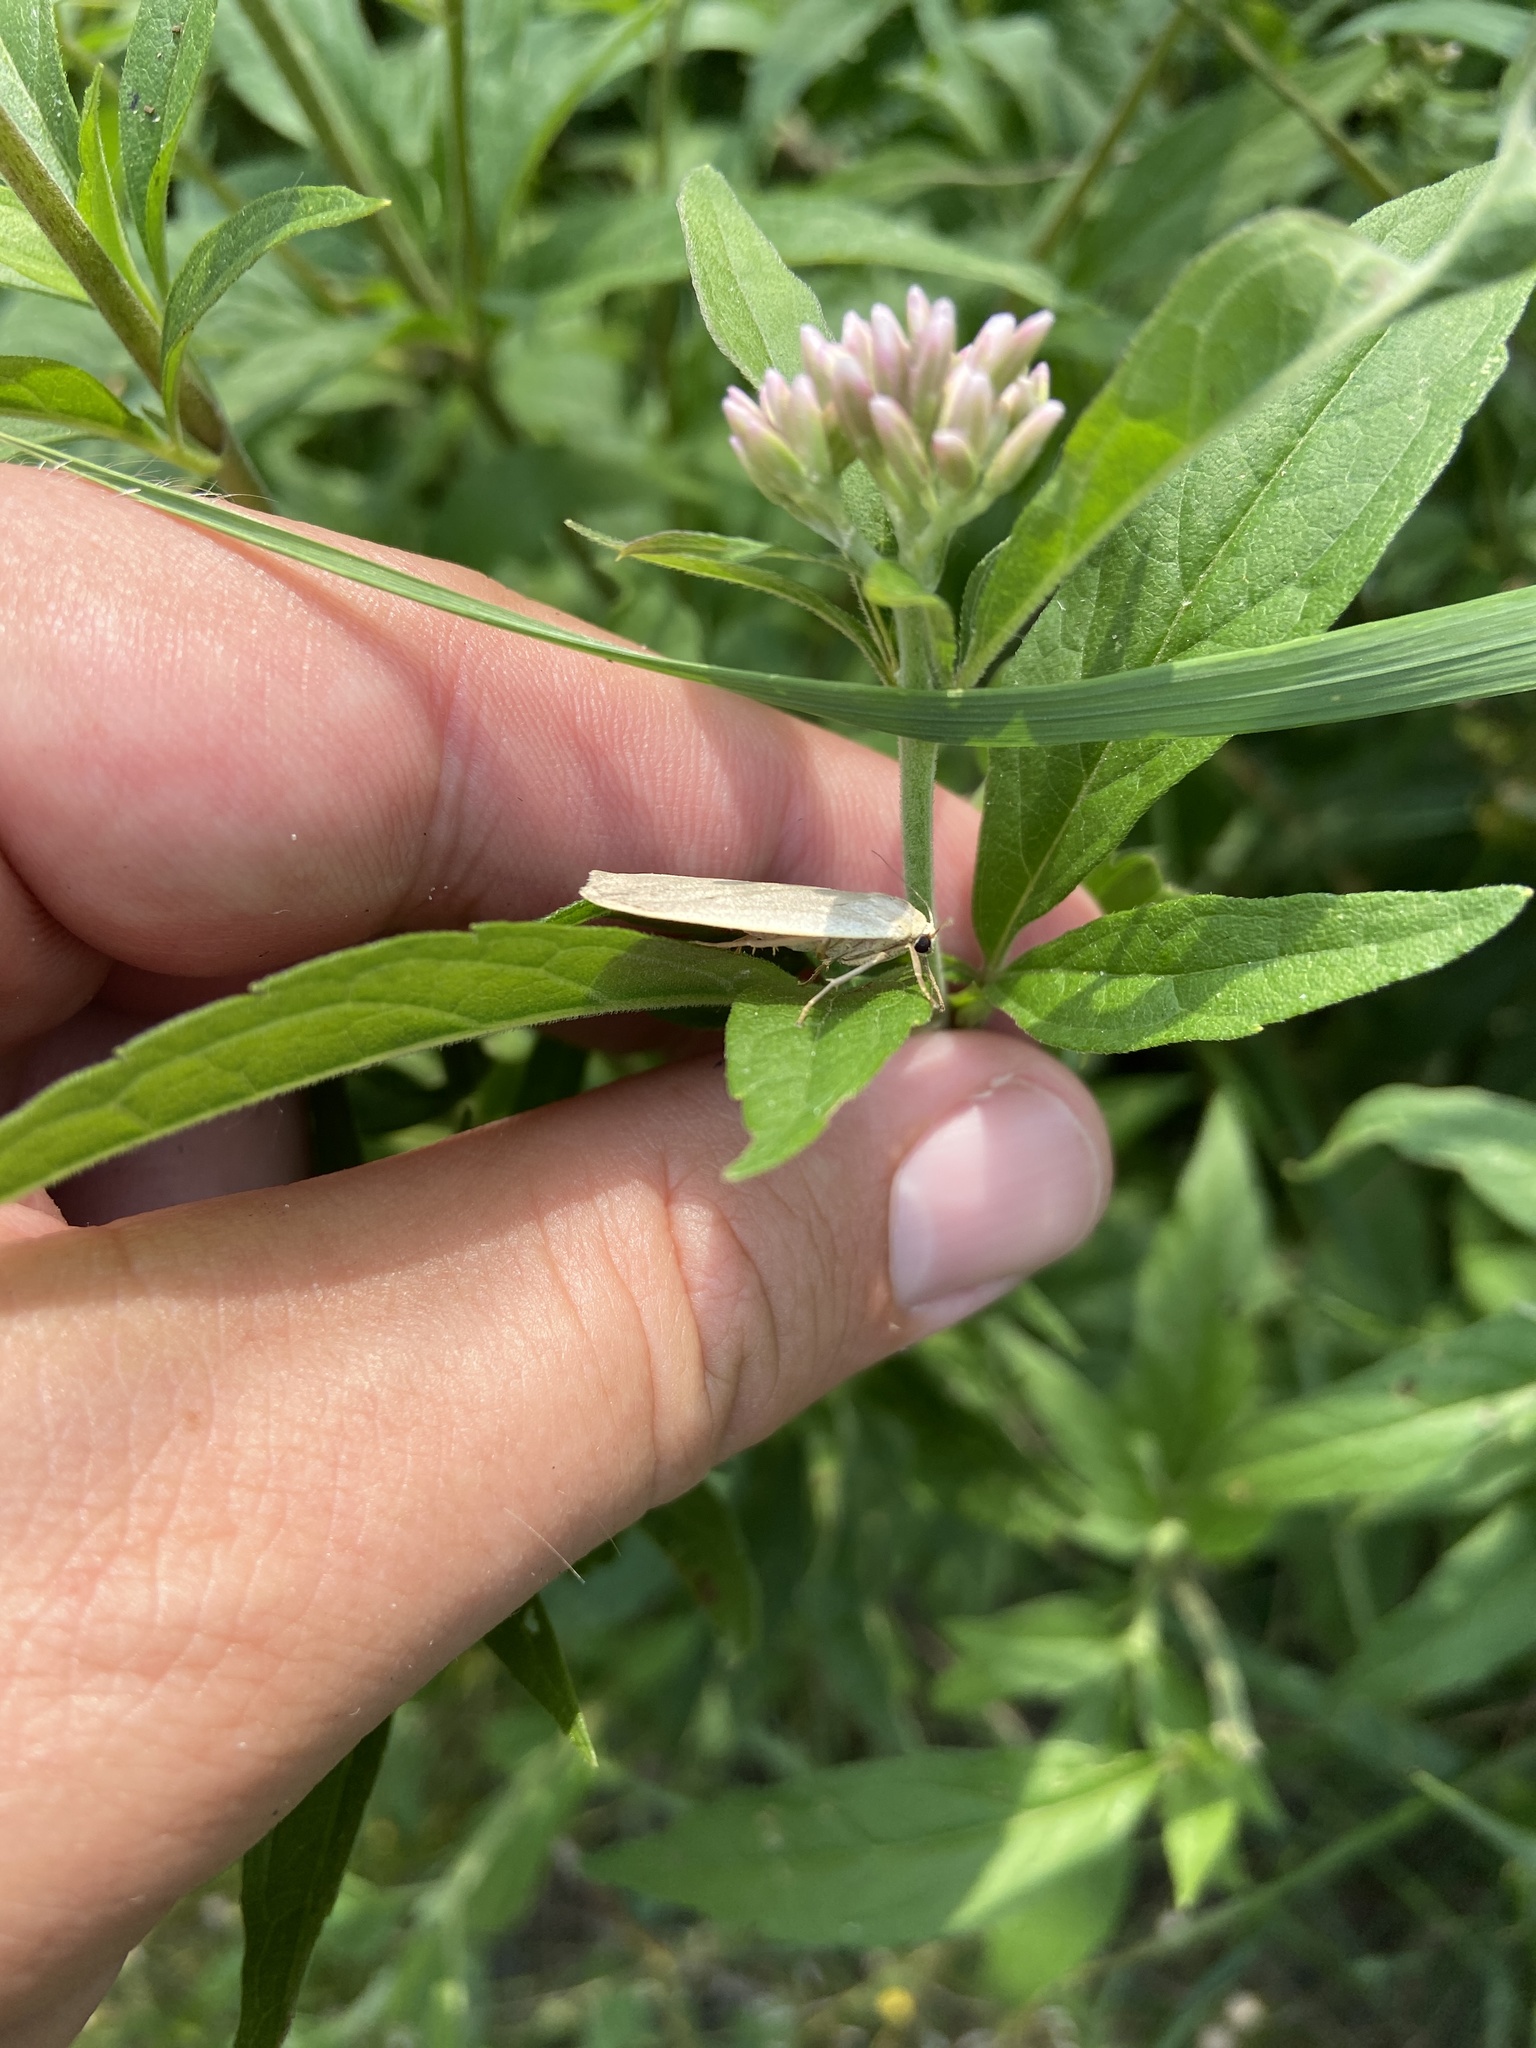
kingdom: Animalia
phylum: Arthropoda
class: Insecta
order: Lepidoptera
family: Erebidae
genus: Collita
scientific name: Collita griseola
